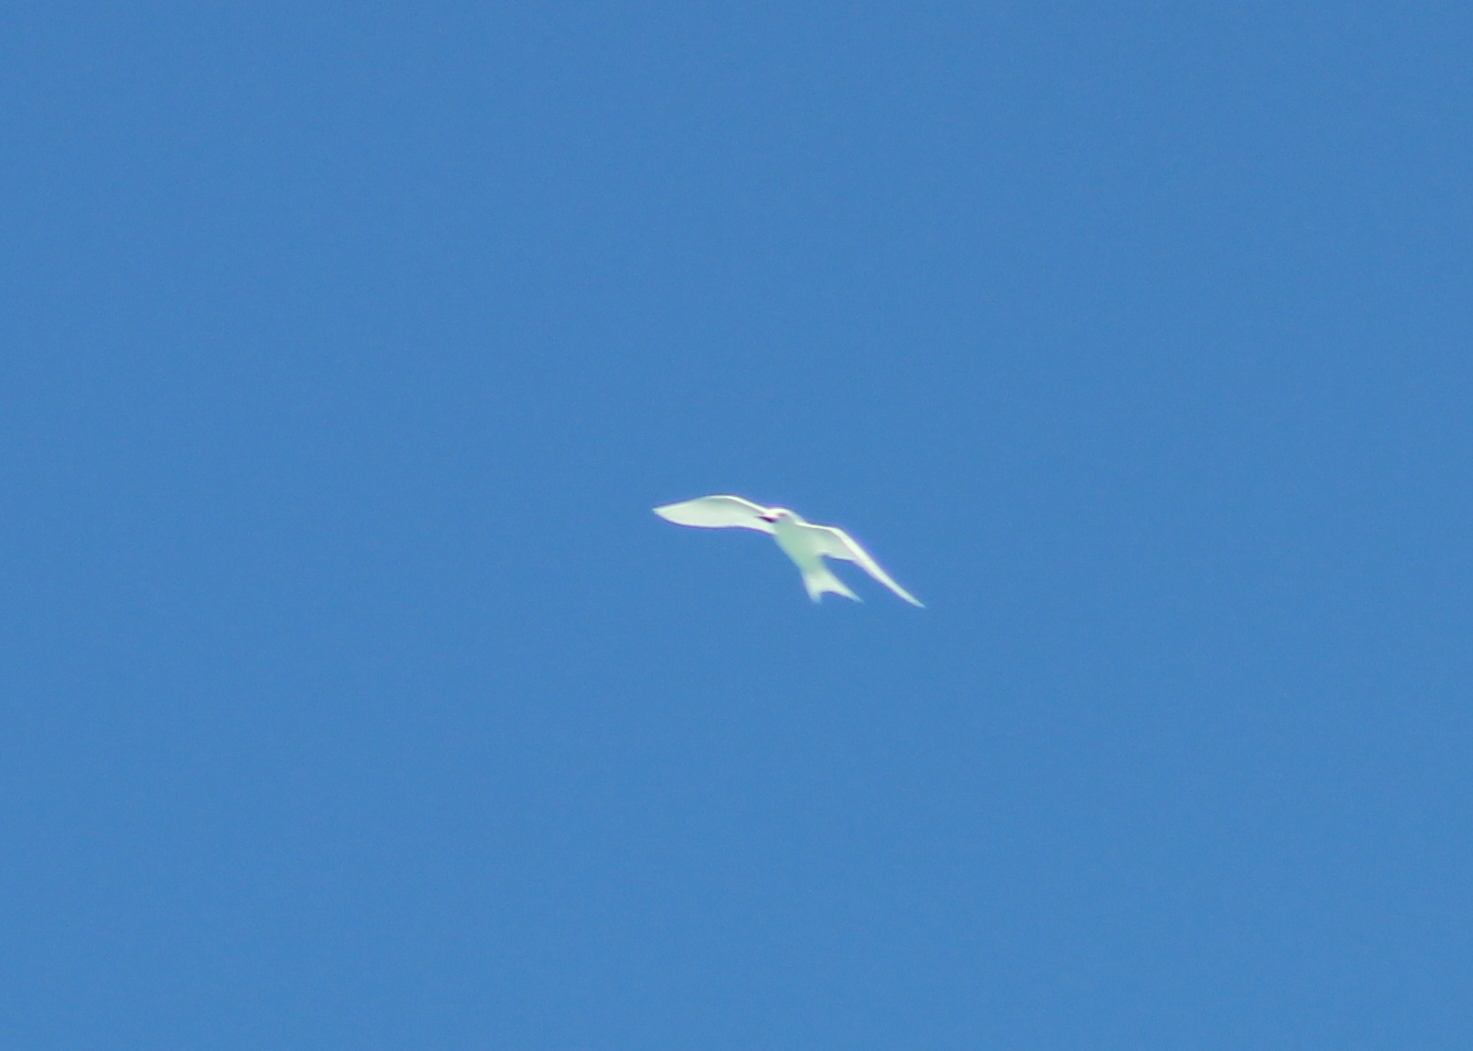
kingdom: Animalia
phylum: Chordata
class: Aves
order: Charadriiformes
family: Laridae
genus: Gygis
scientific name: Gygis alba
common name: White tern
